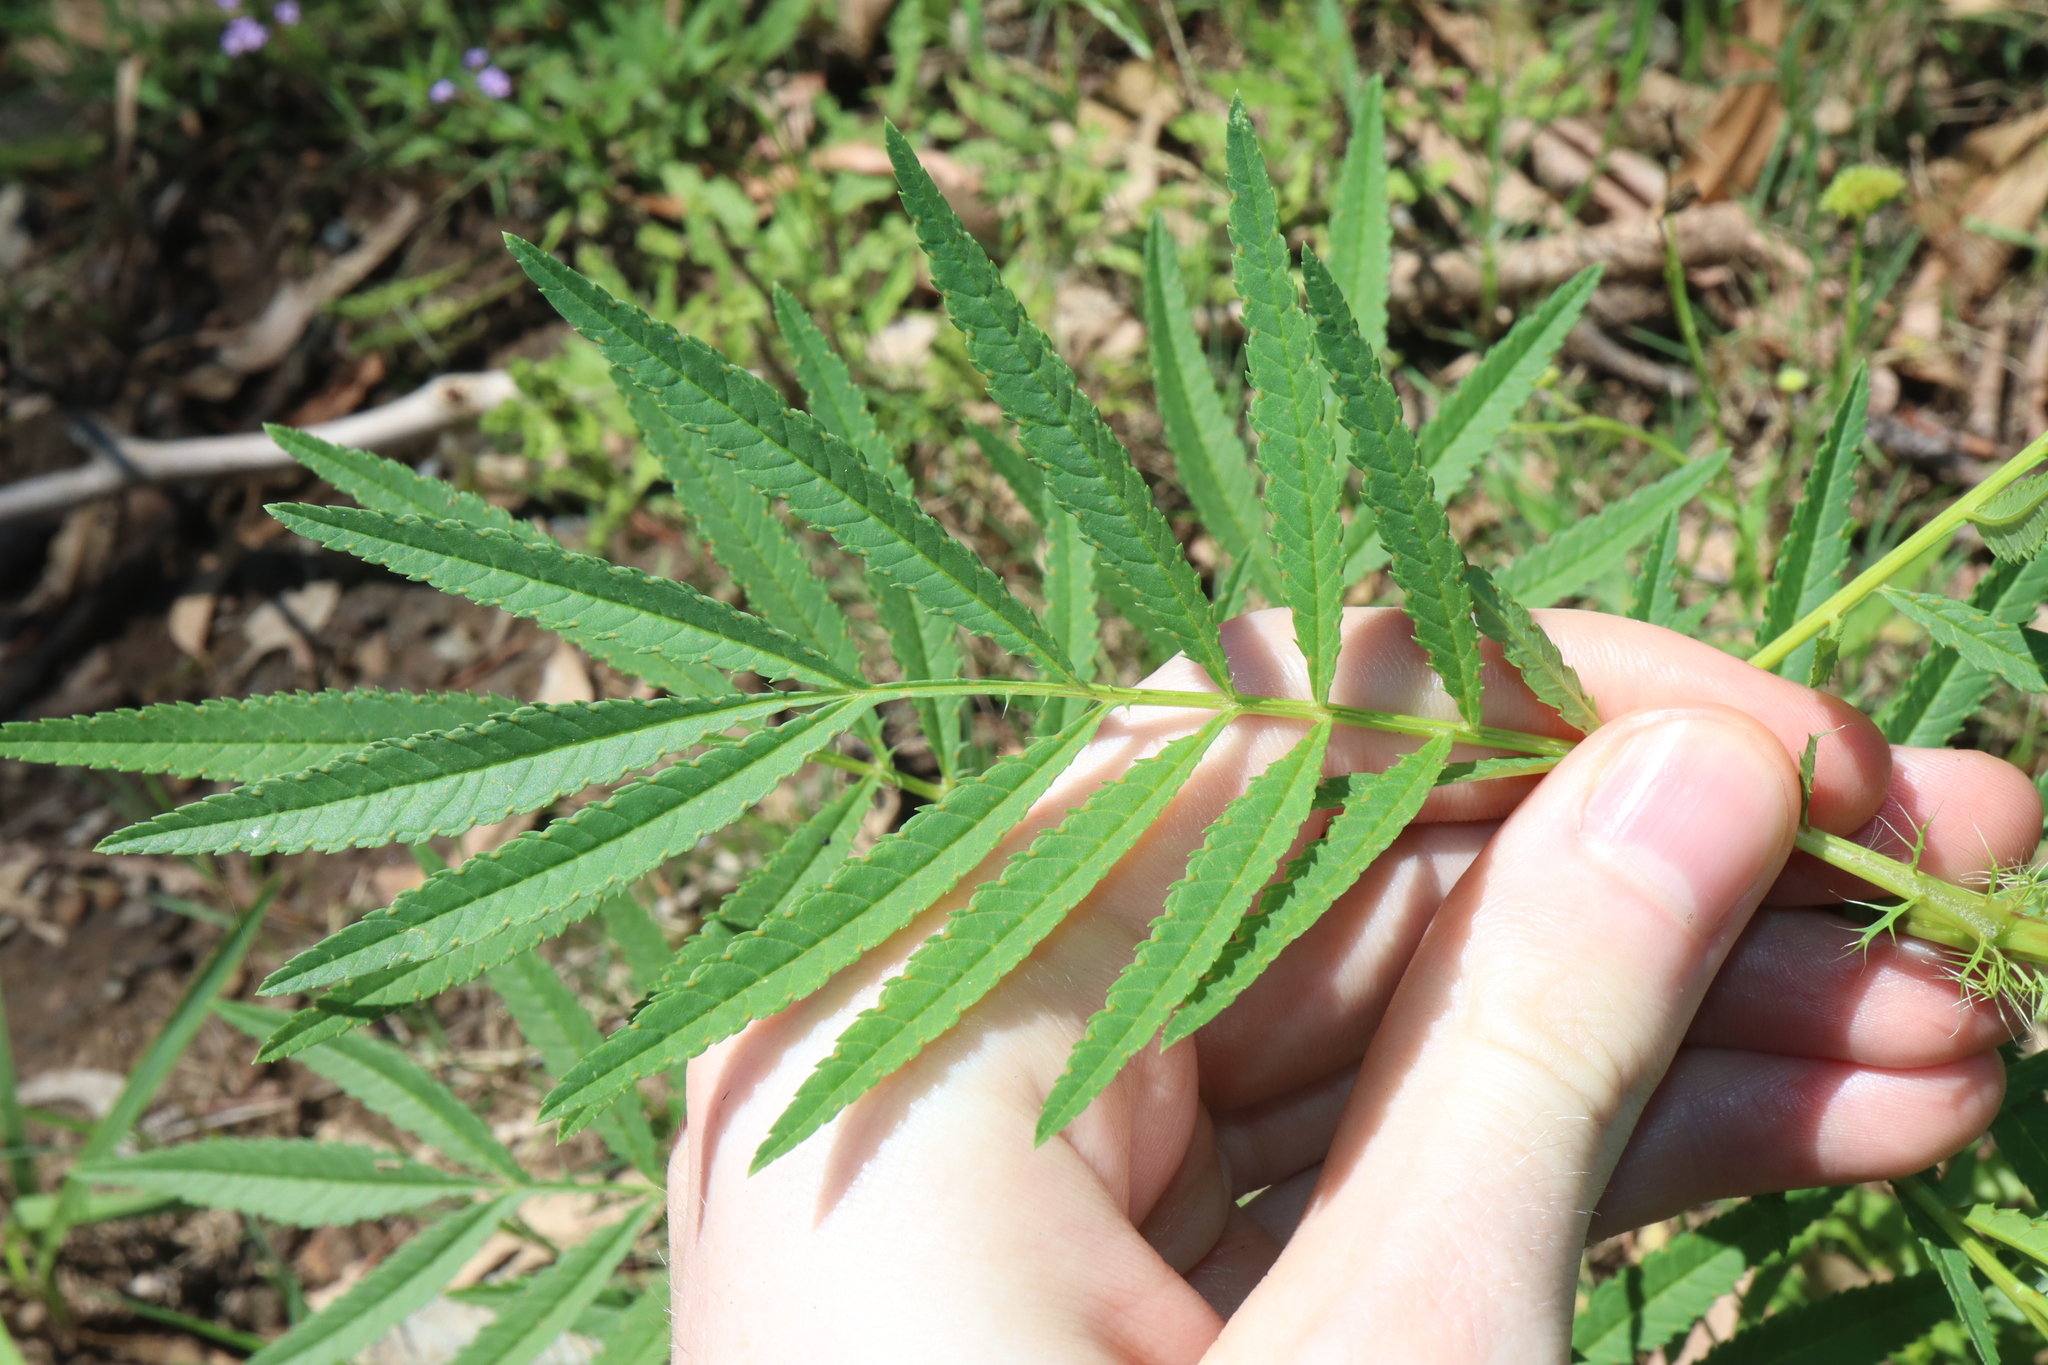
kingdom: Plantae
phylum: Tracheophyta
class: Magnoliopsida
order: Asterales
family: Asteraceae
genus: Tagetes
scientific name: Tagetes minuta
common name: Muster john henry
